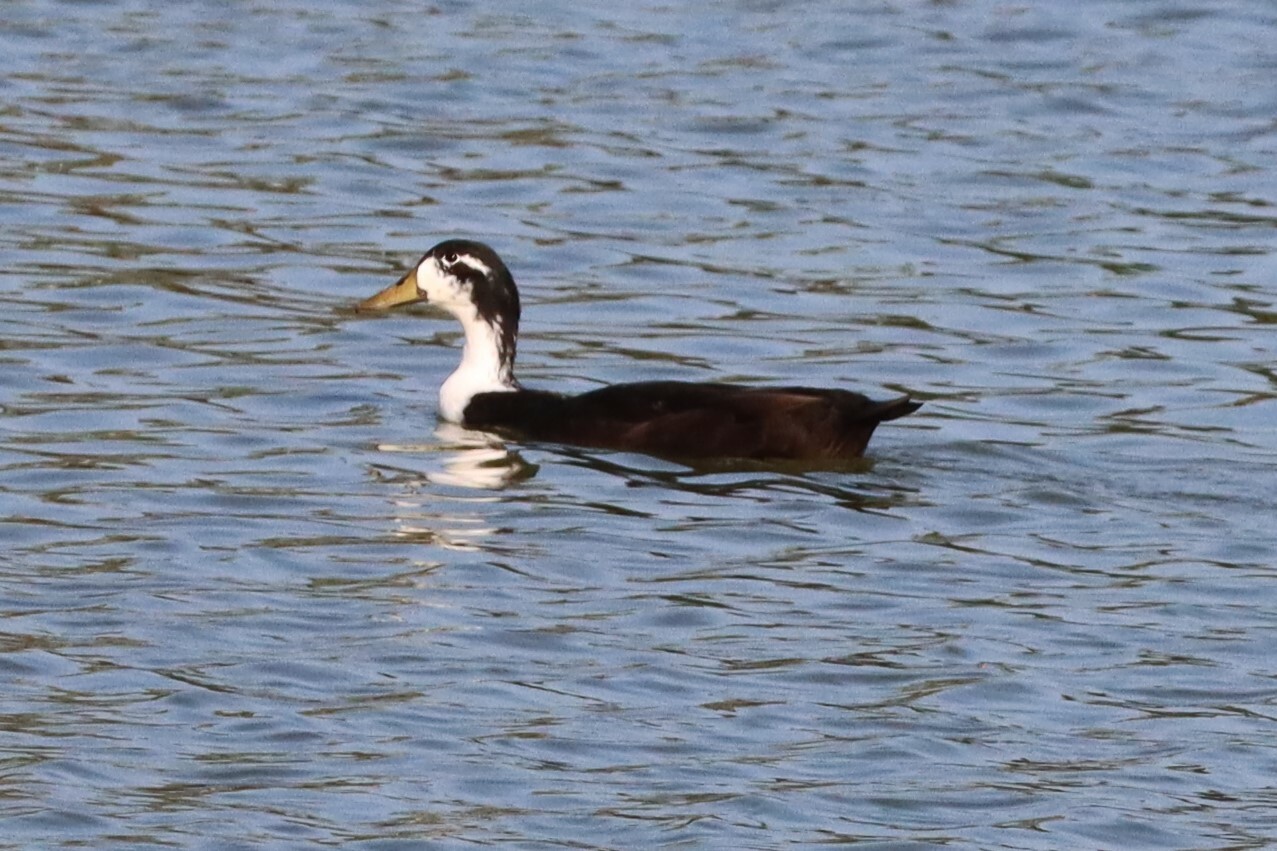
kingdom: Animalia
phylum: Chordata
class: Aves
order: Anseriformes
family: Anatidae
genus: Anas
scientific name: Anas platyrhynchos
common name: Mallard
